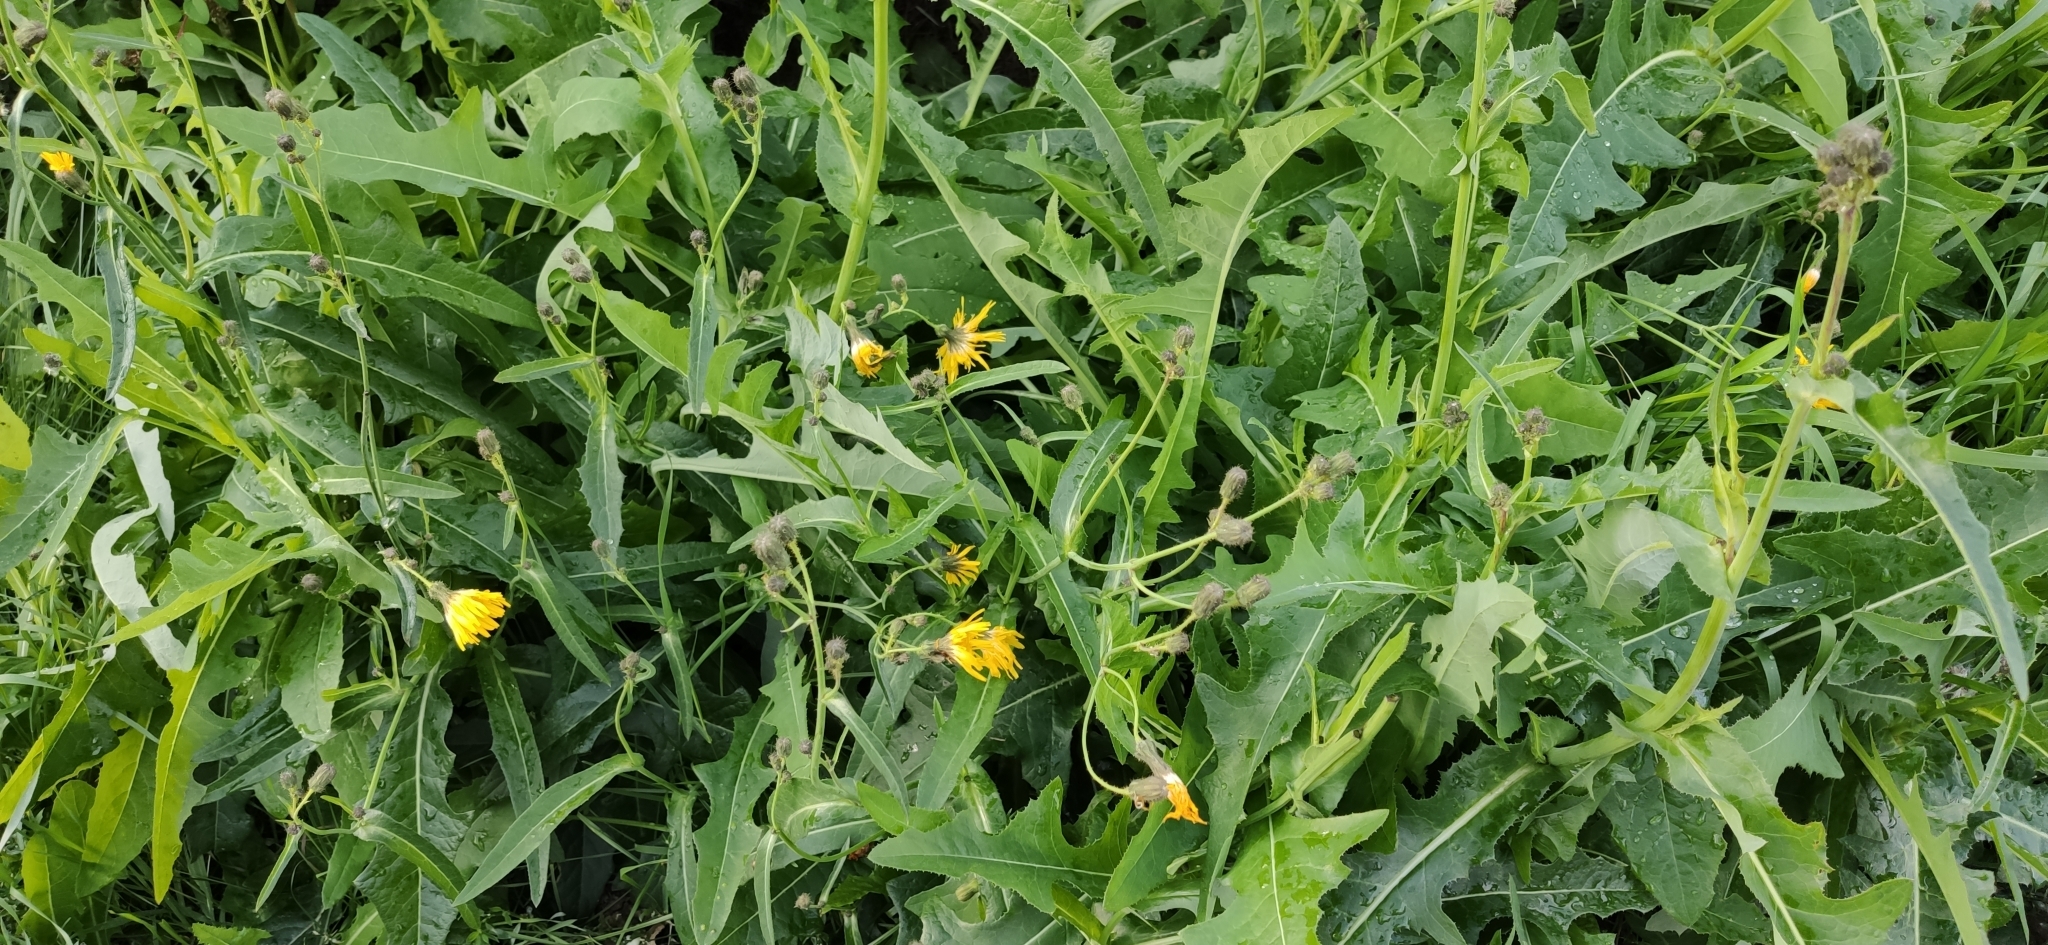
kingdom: Plantae
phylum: Tracheophyta
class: Magnoliopsida
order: Asterales
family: Asteraceae
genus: Sonchus
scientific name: Sonchus arvensis
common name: Perennial sow-thistle
